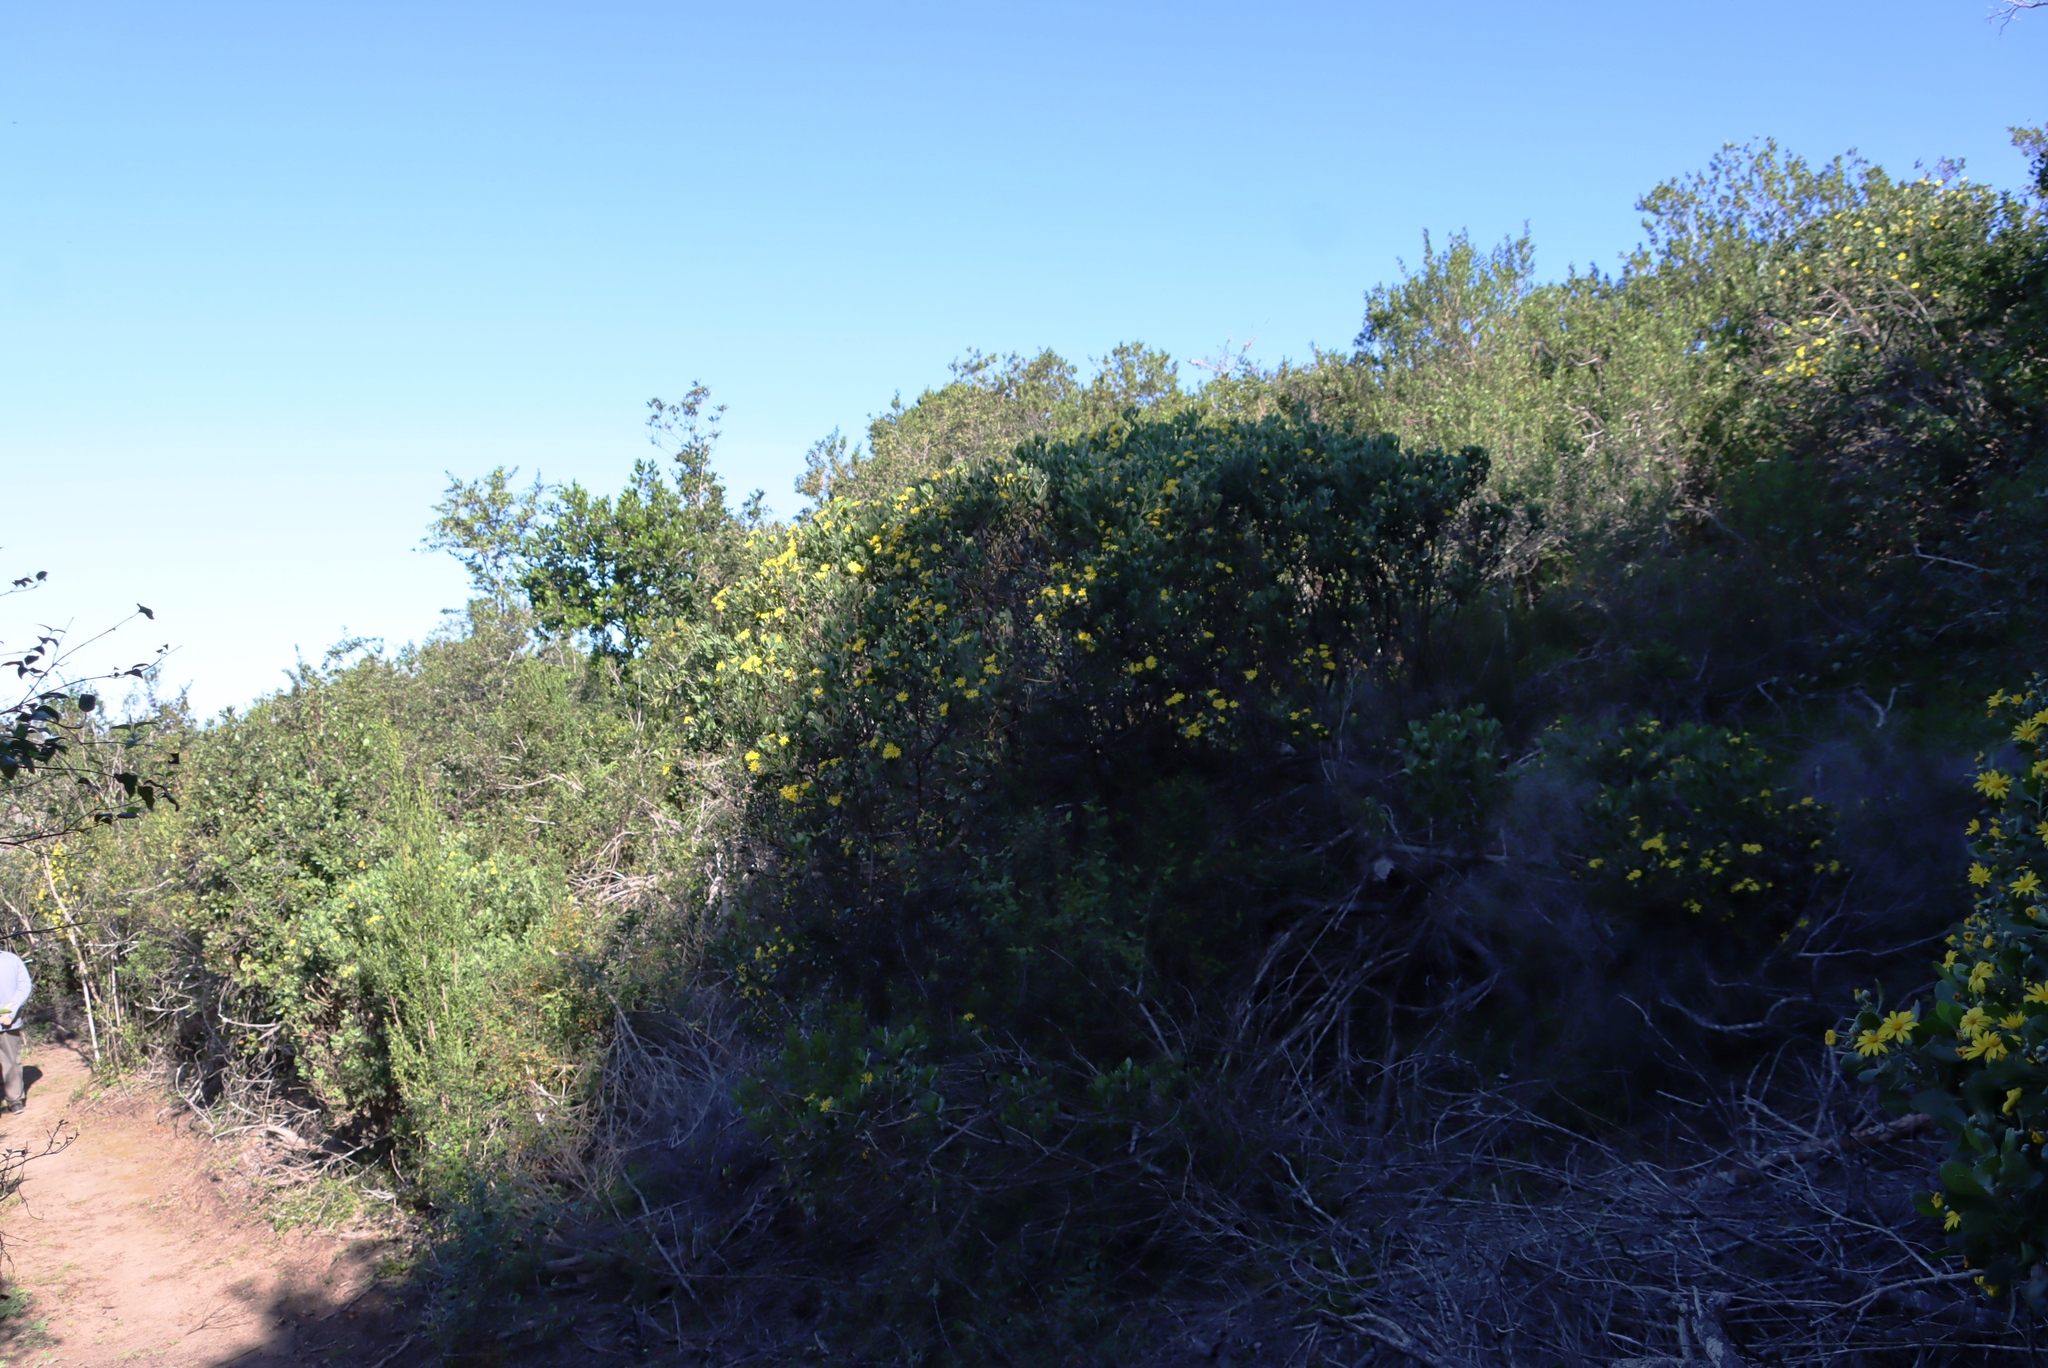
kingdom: Plantae
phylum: Tracheophyta
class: Magnoliopsida
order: Asterales
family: Asteraceae
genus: Osteospermum
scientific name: Osteospermum moniliferum
